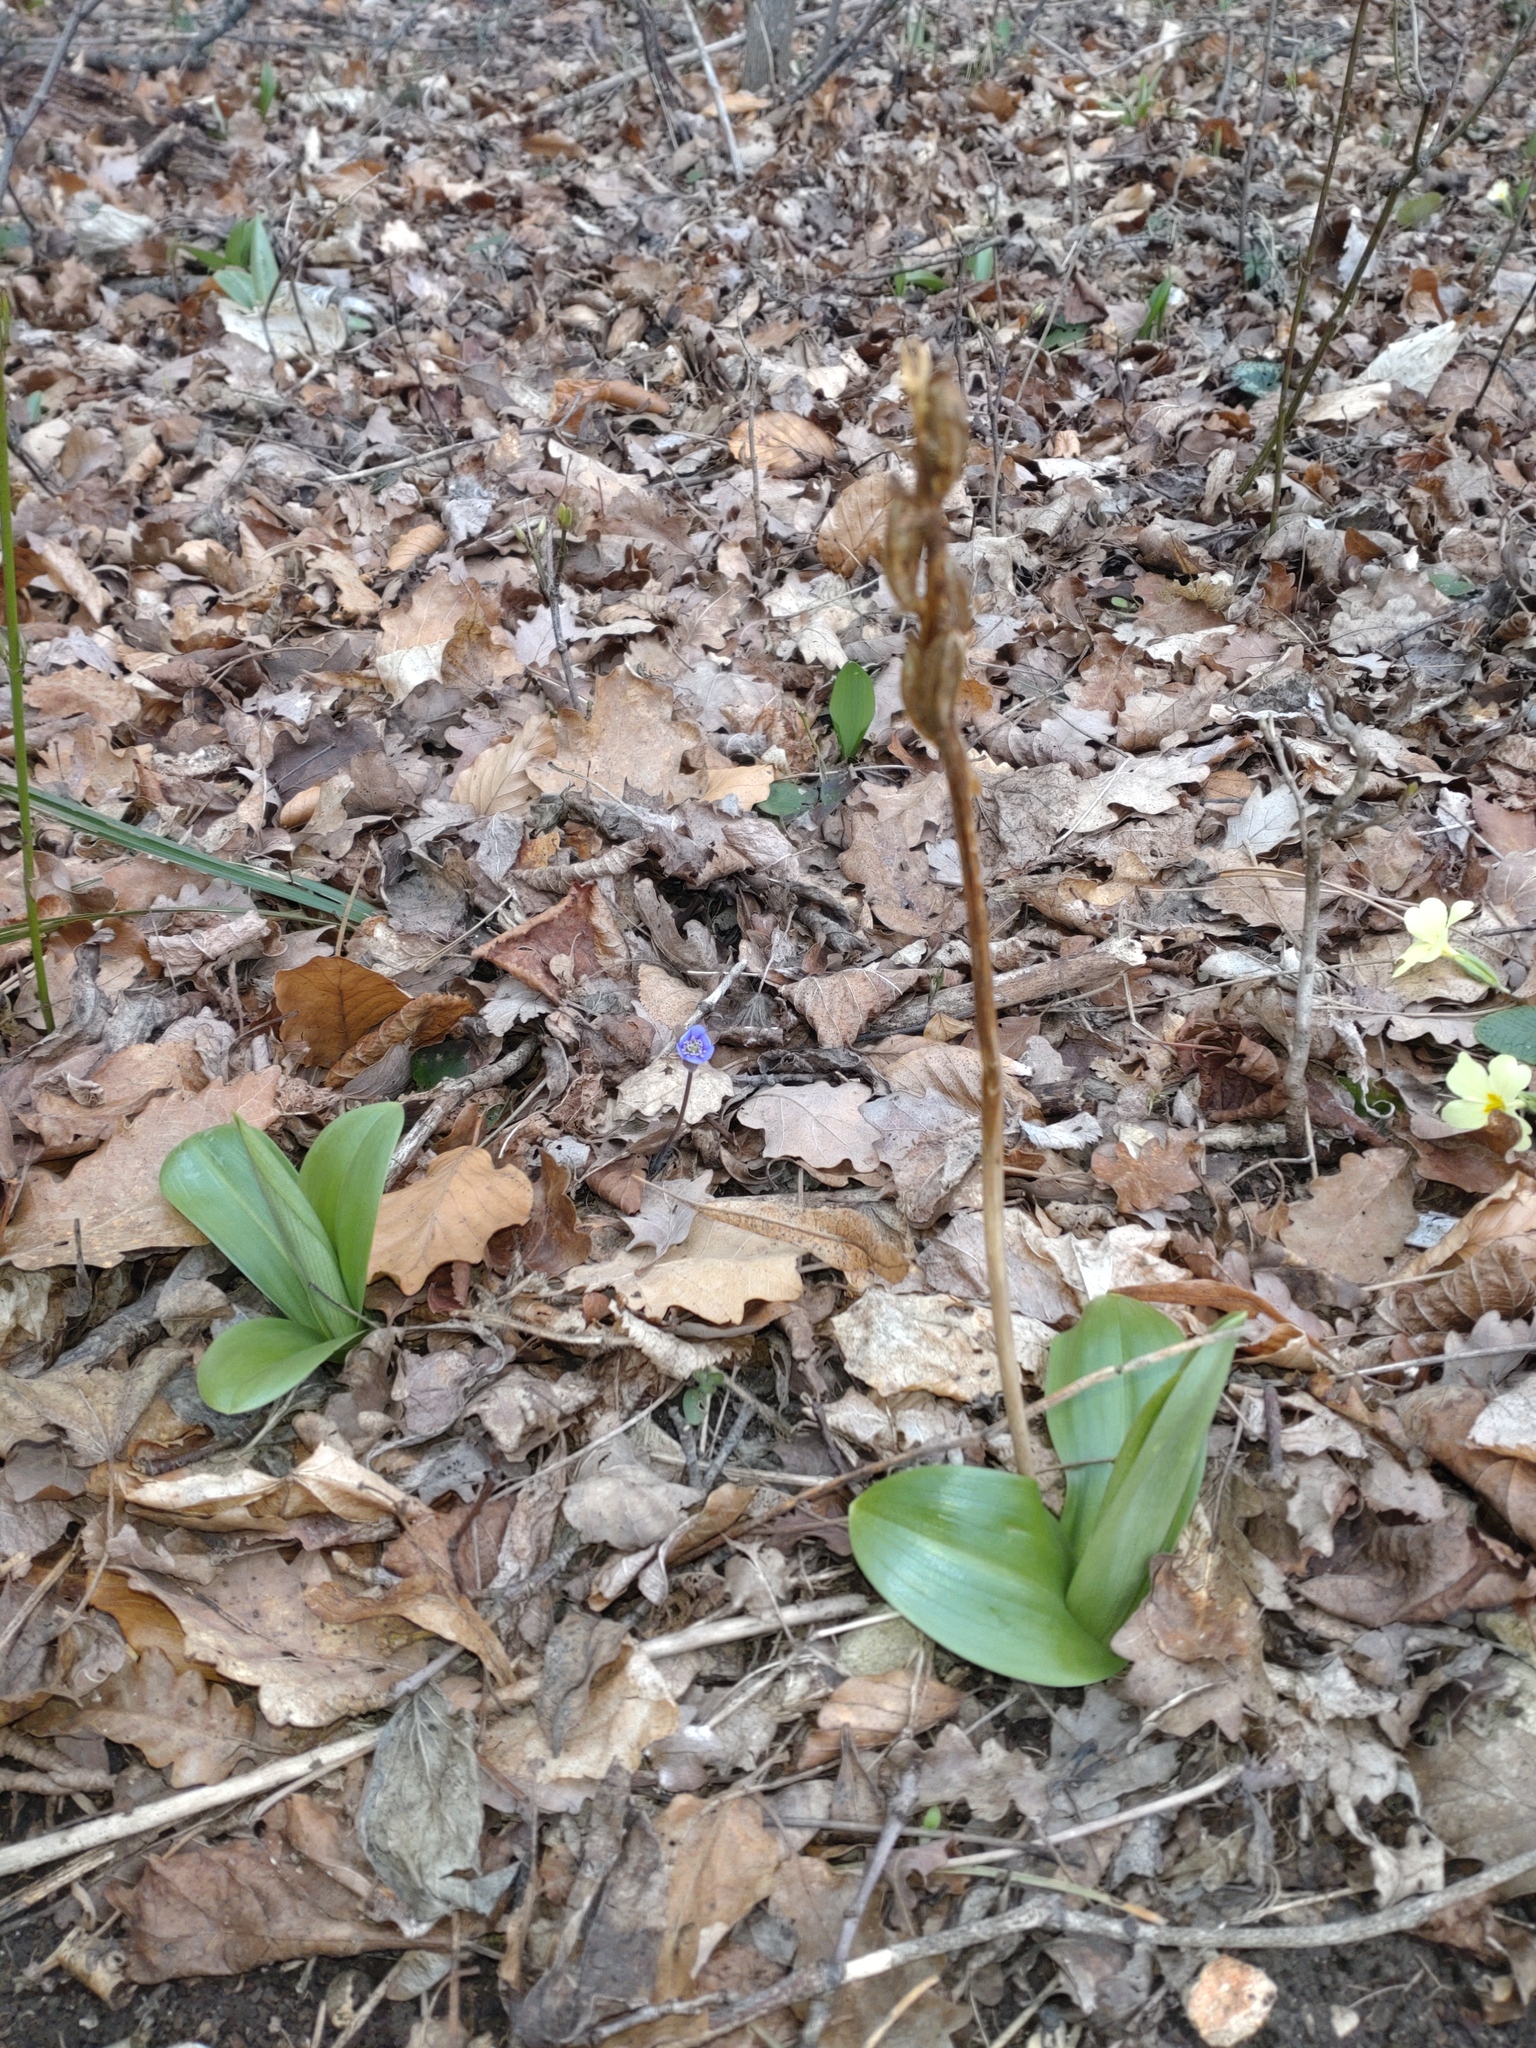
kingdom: Plantae
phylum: Tracheophyta
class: Liliopsida
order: Asparagales
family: Orchidaceae
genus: Orchis
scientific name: Orchis pallens
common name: Pale-flowered orchid
